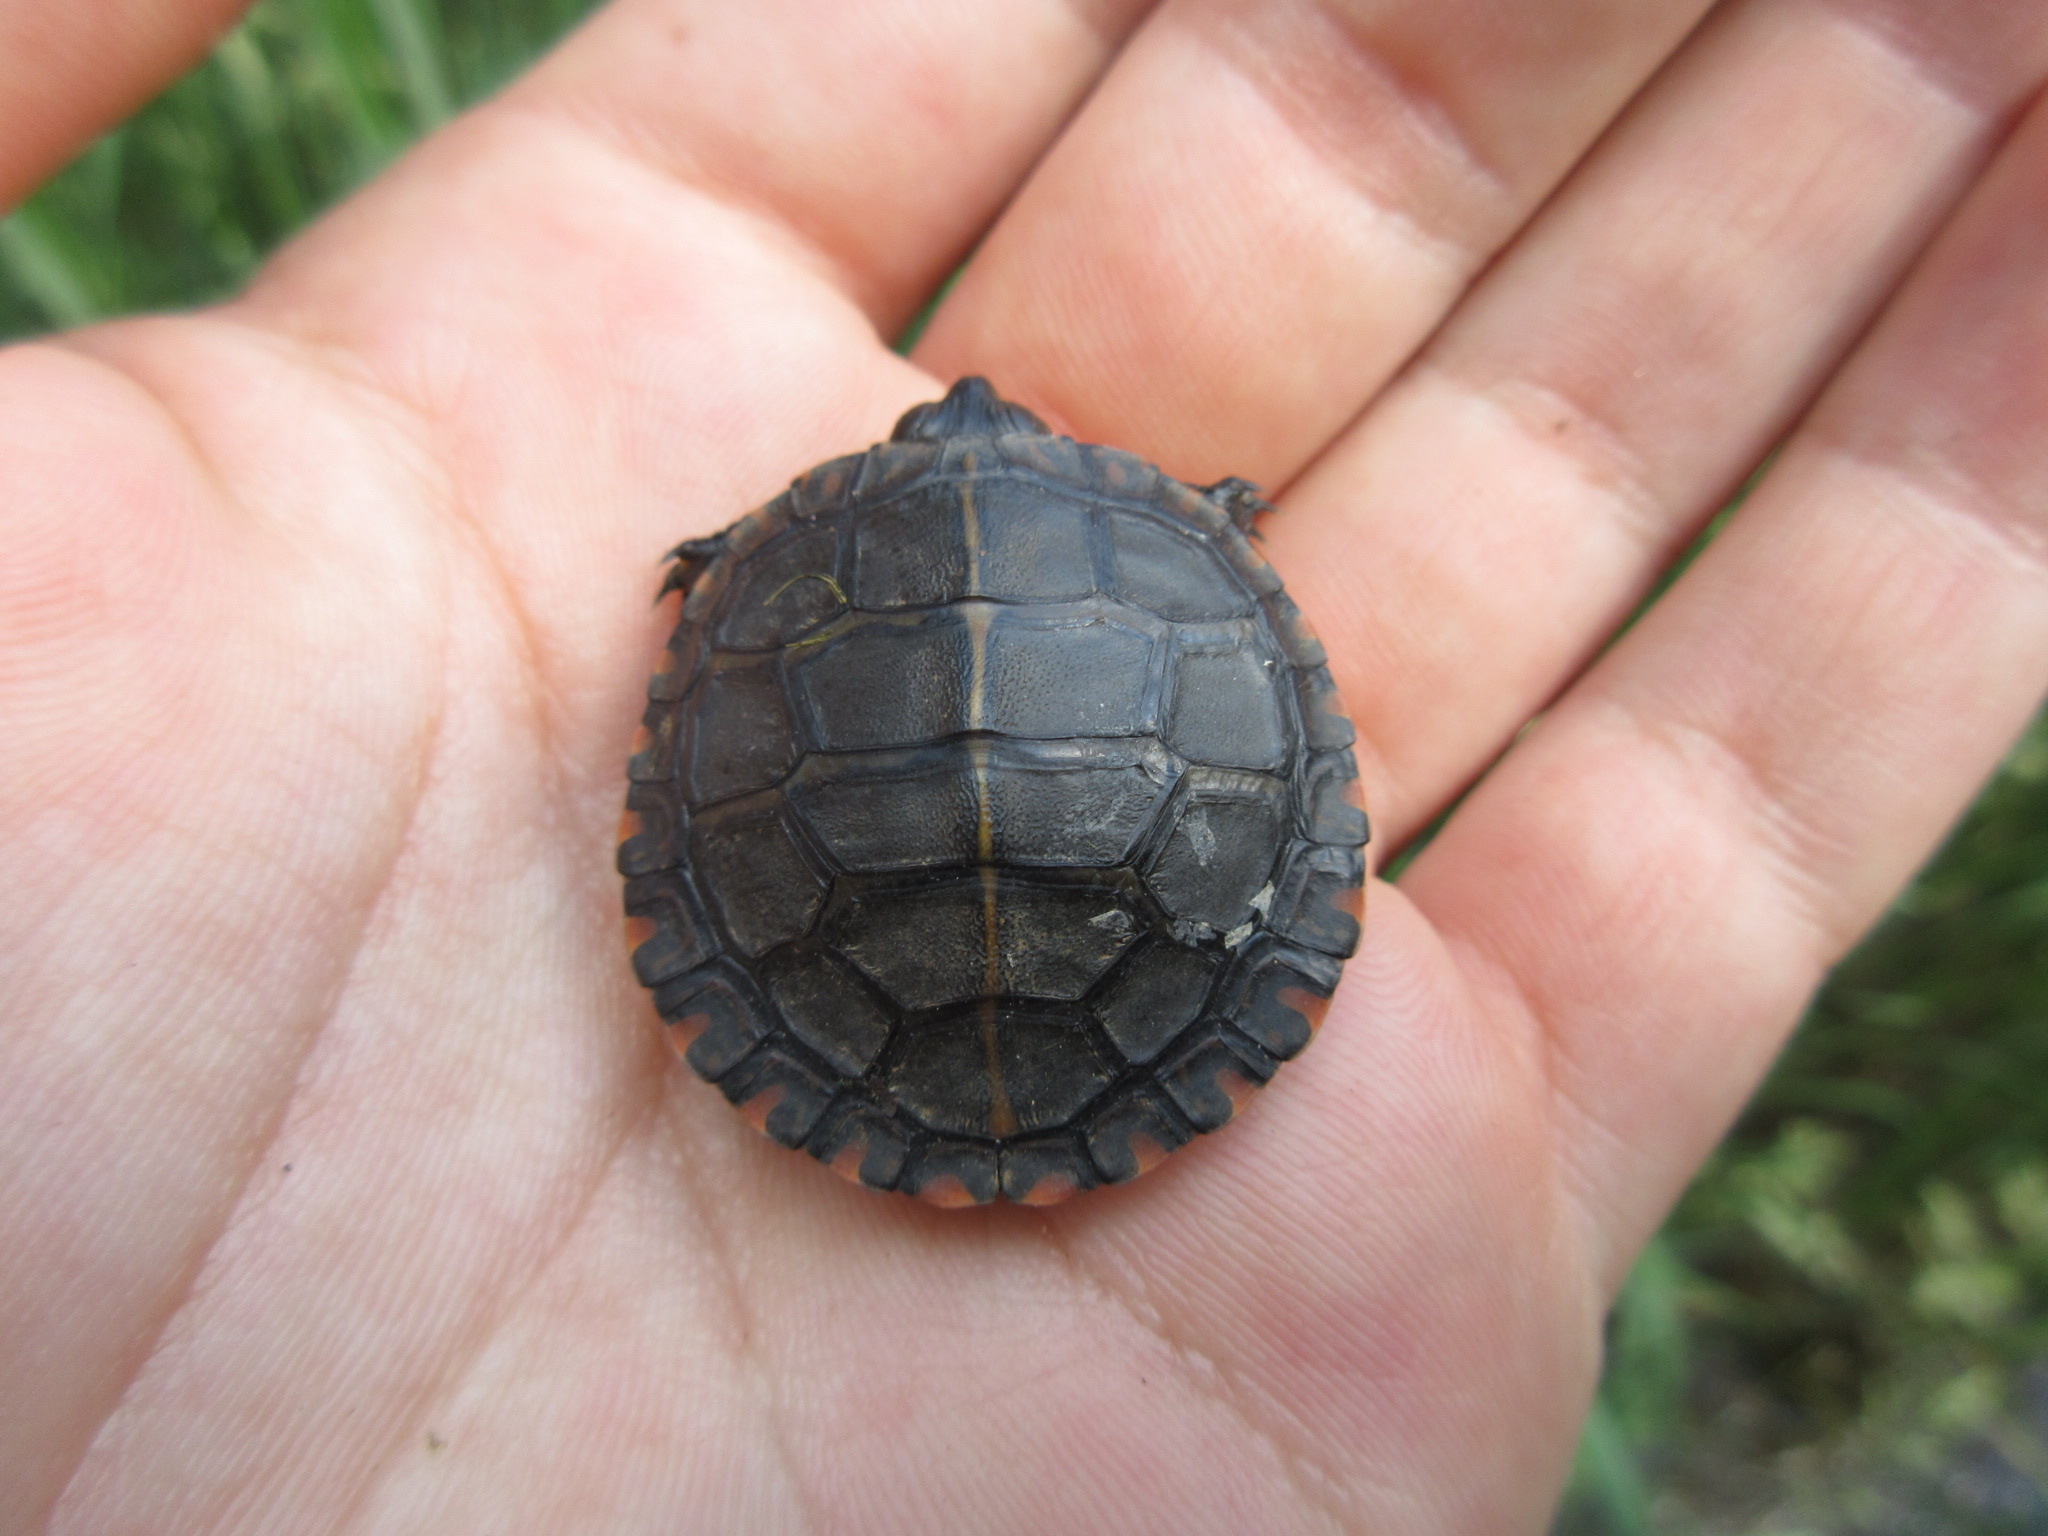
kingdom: Animalia
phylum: Chordata
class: Testudines
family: Emydidae
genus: Chrysemys
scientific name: Chrysemys picta
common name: Painted turtle
